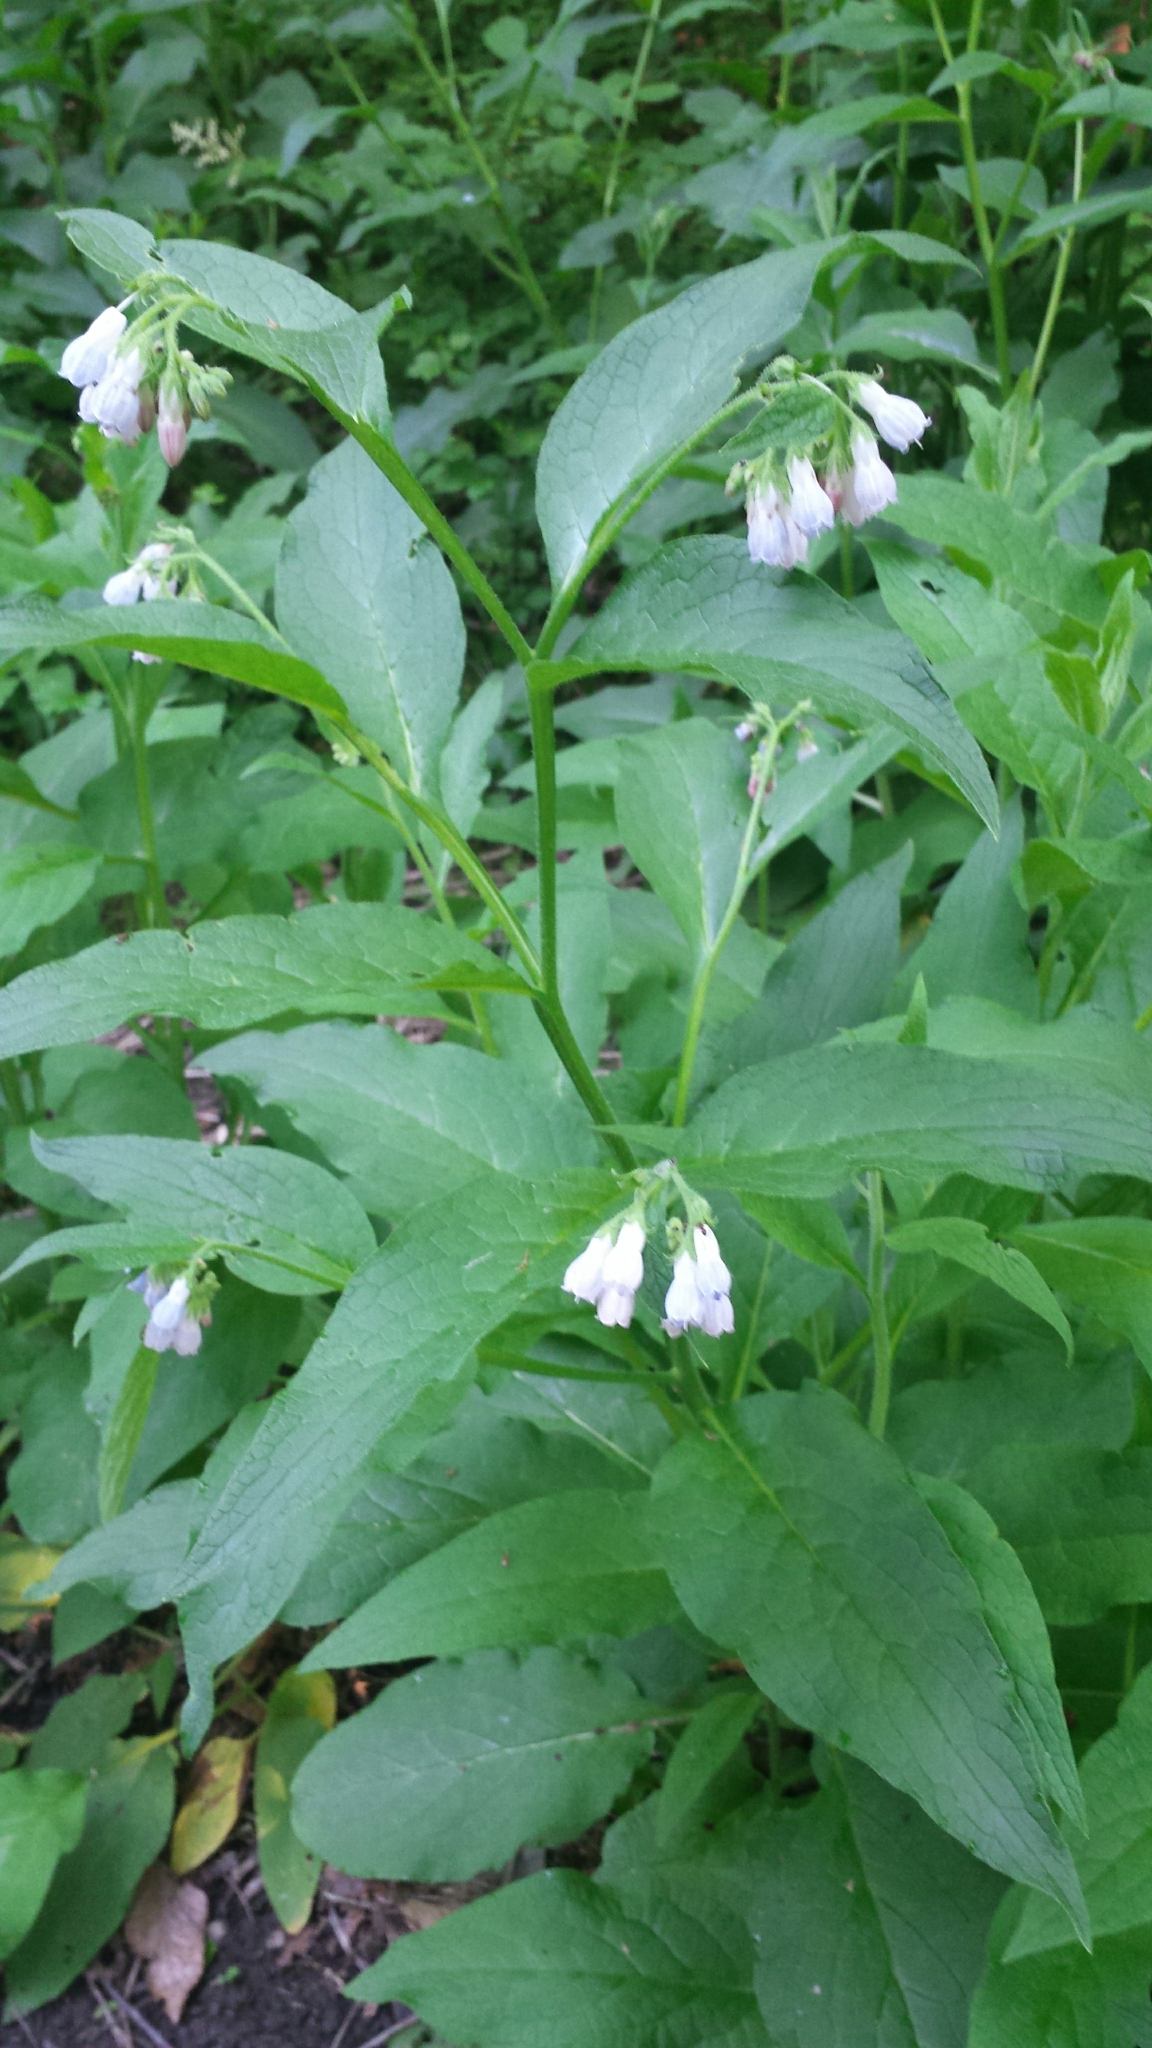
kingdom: Plantae
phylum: Tracheophyta
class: Magnoliopsida
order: Boraginales
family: Boraginaceae
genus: Symphytum
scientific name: Symphytum officinale
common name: Common comfrey
